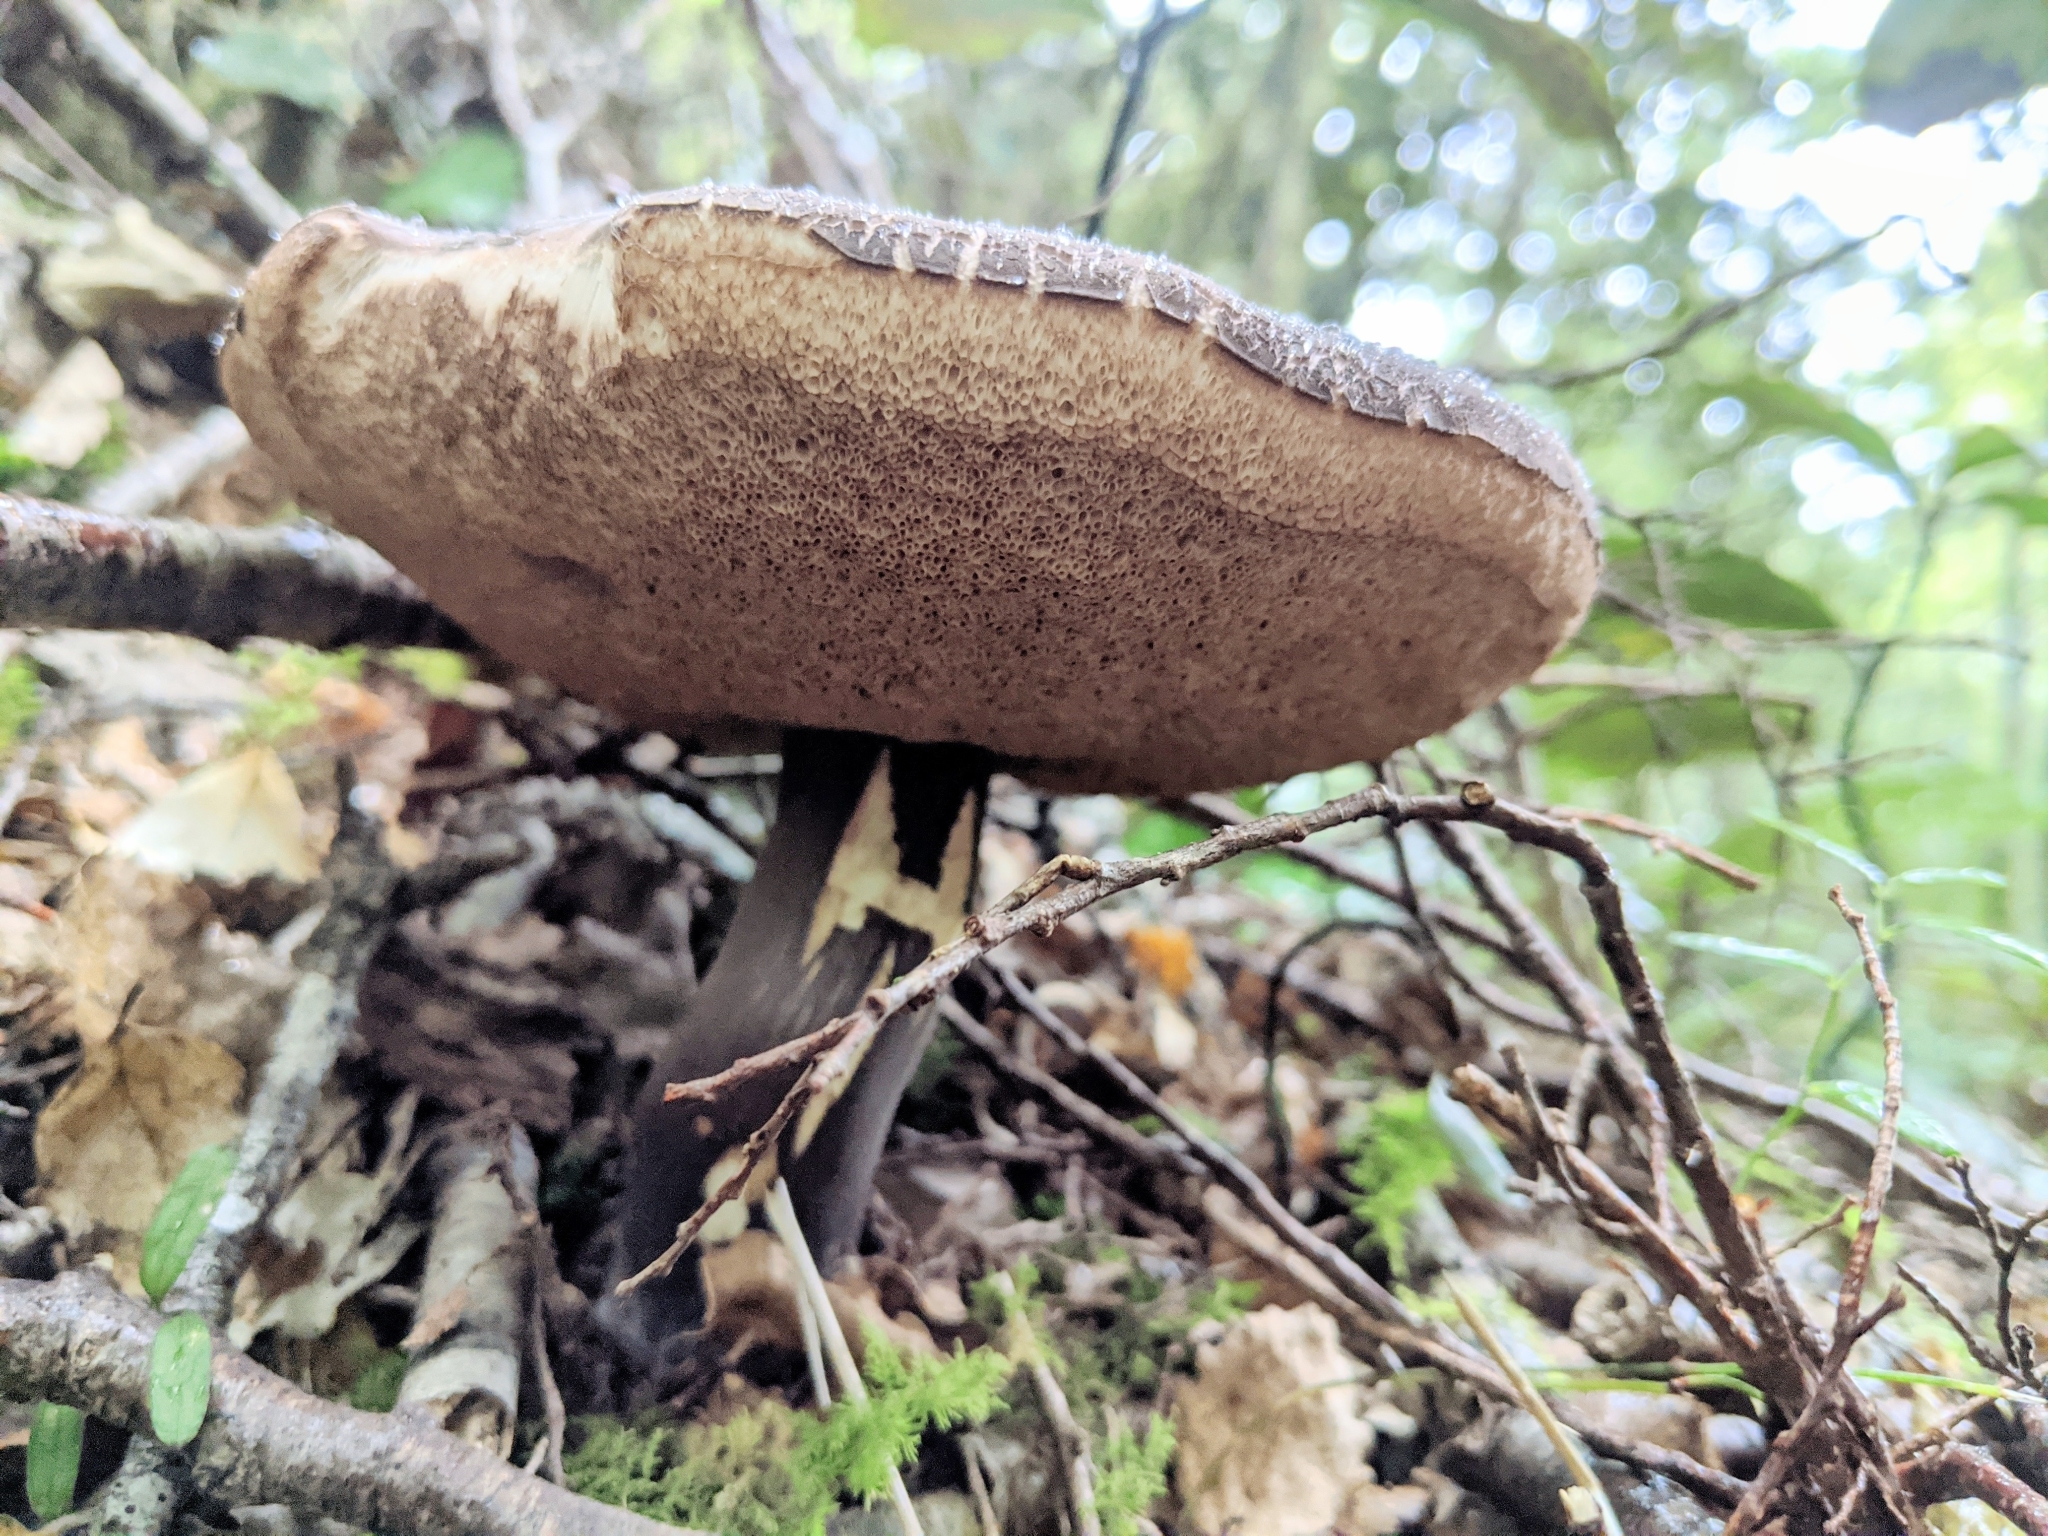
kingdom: Fungi
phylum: Basidiomycota
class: Agaricomycetes
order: Boletales
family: Boletaceae
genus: Porphyrellus
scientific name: Porphyrellus formosus
